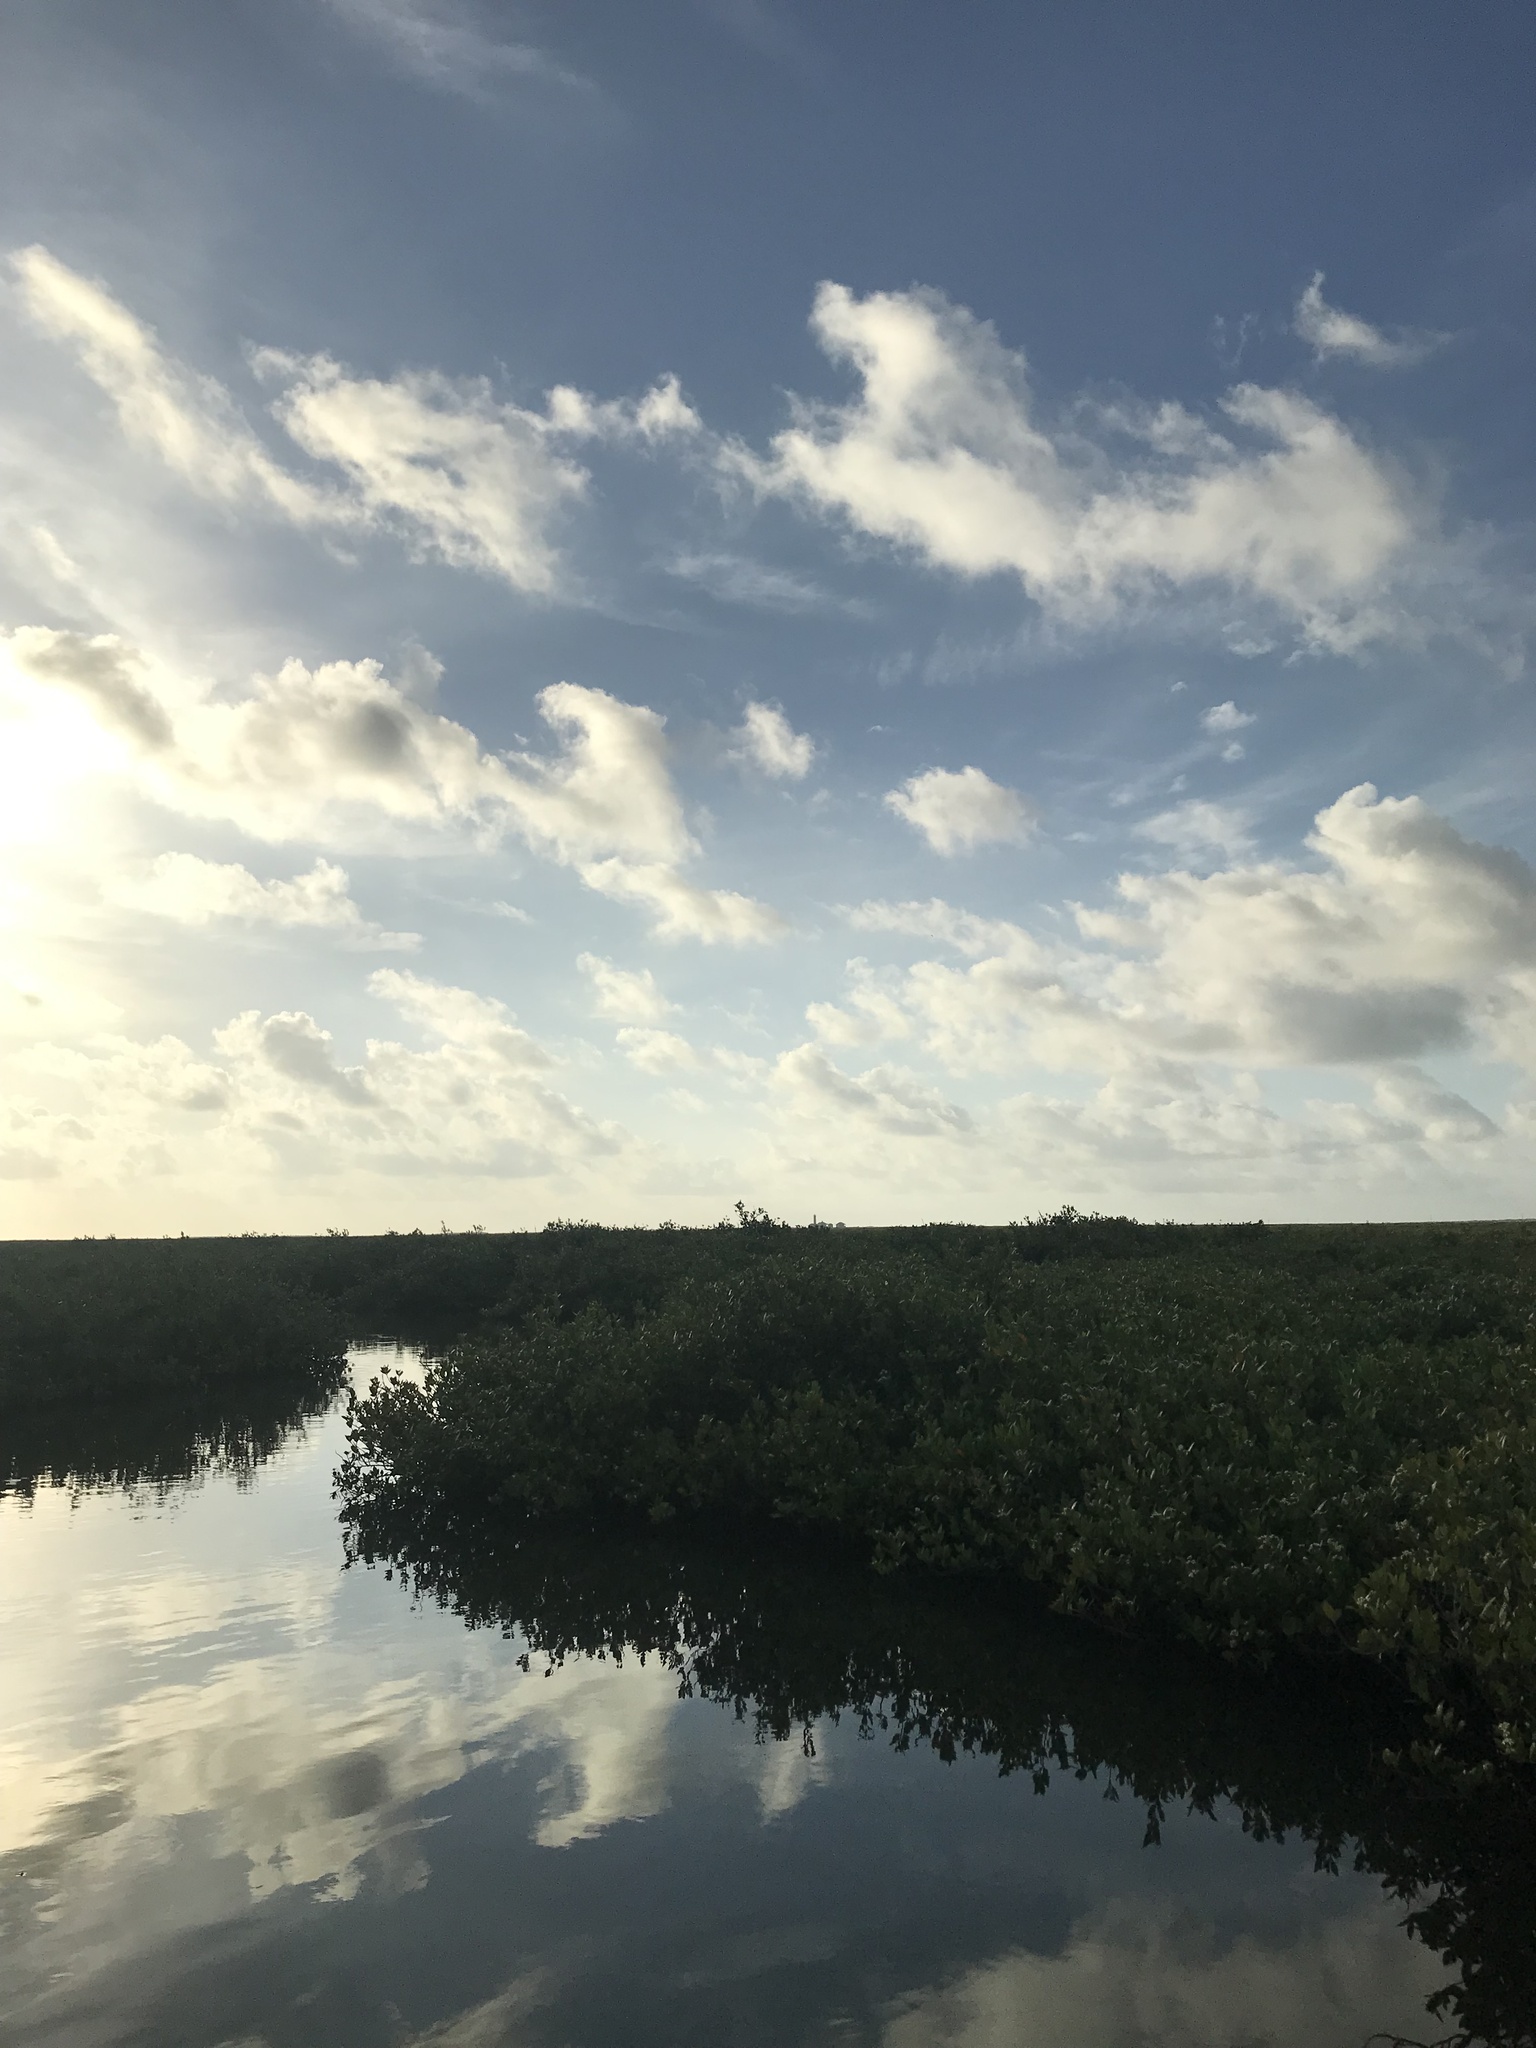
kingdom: Plantae
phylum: Tracheophyta
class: Magnoliopsida
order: Lamiales
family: Acanthaceae
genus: Avicennia
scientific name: Avicennia germinans
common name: Black mangrove
